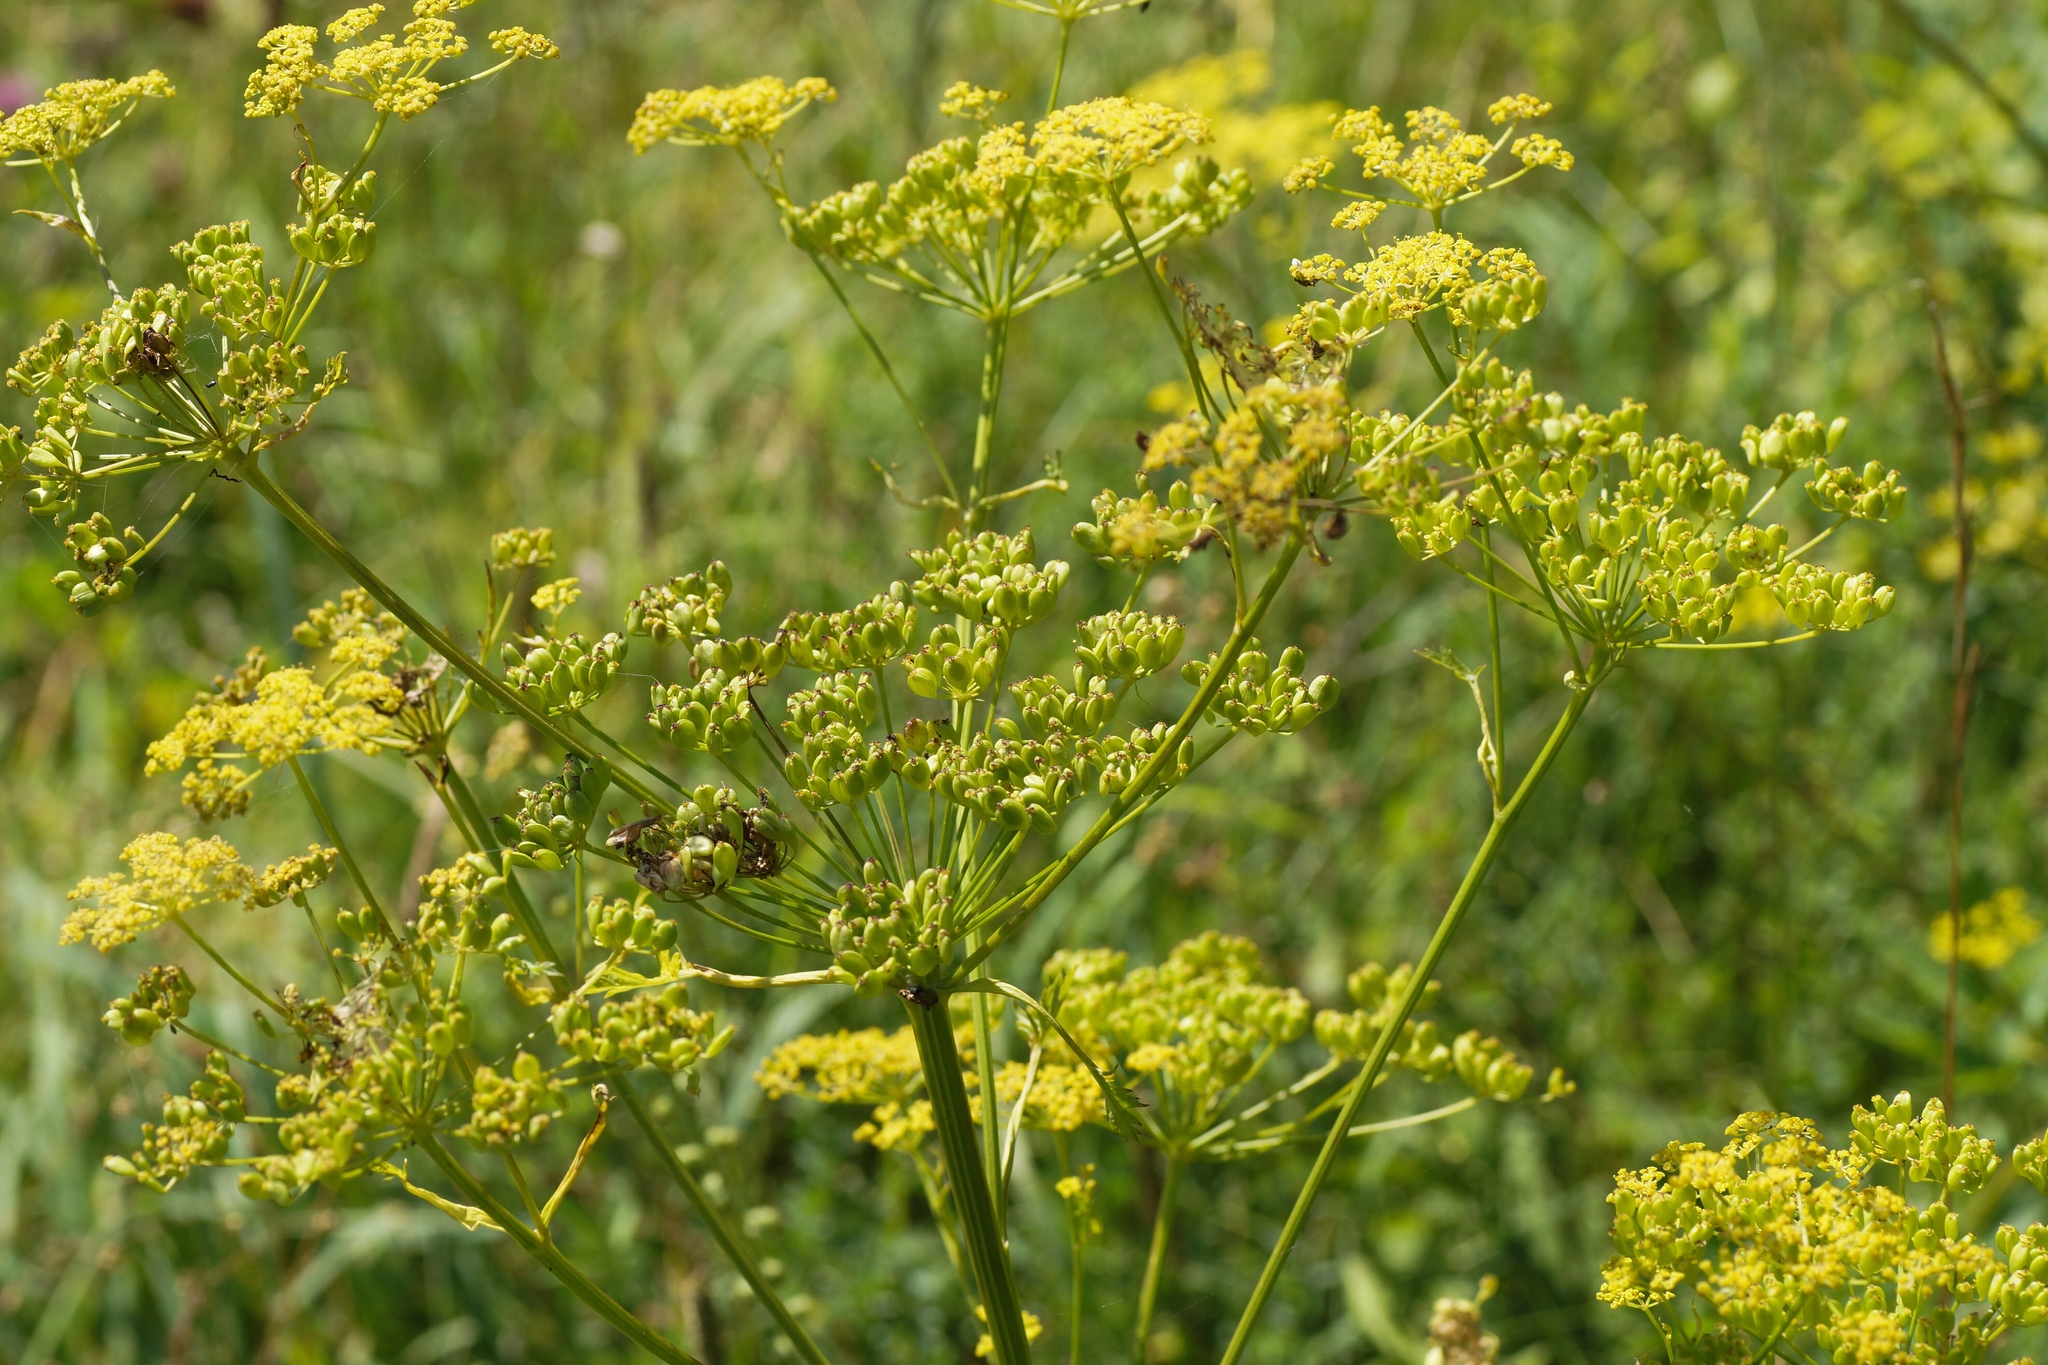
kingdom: Plantae
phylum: Tracheophyta
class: Magnoliopsida
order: Apiales
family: Apiaceae
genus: Pastinaca
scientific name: Pastinaca sativa
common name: Wild parsnip
